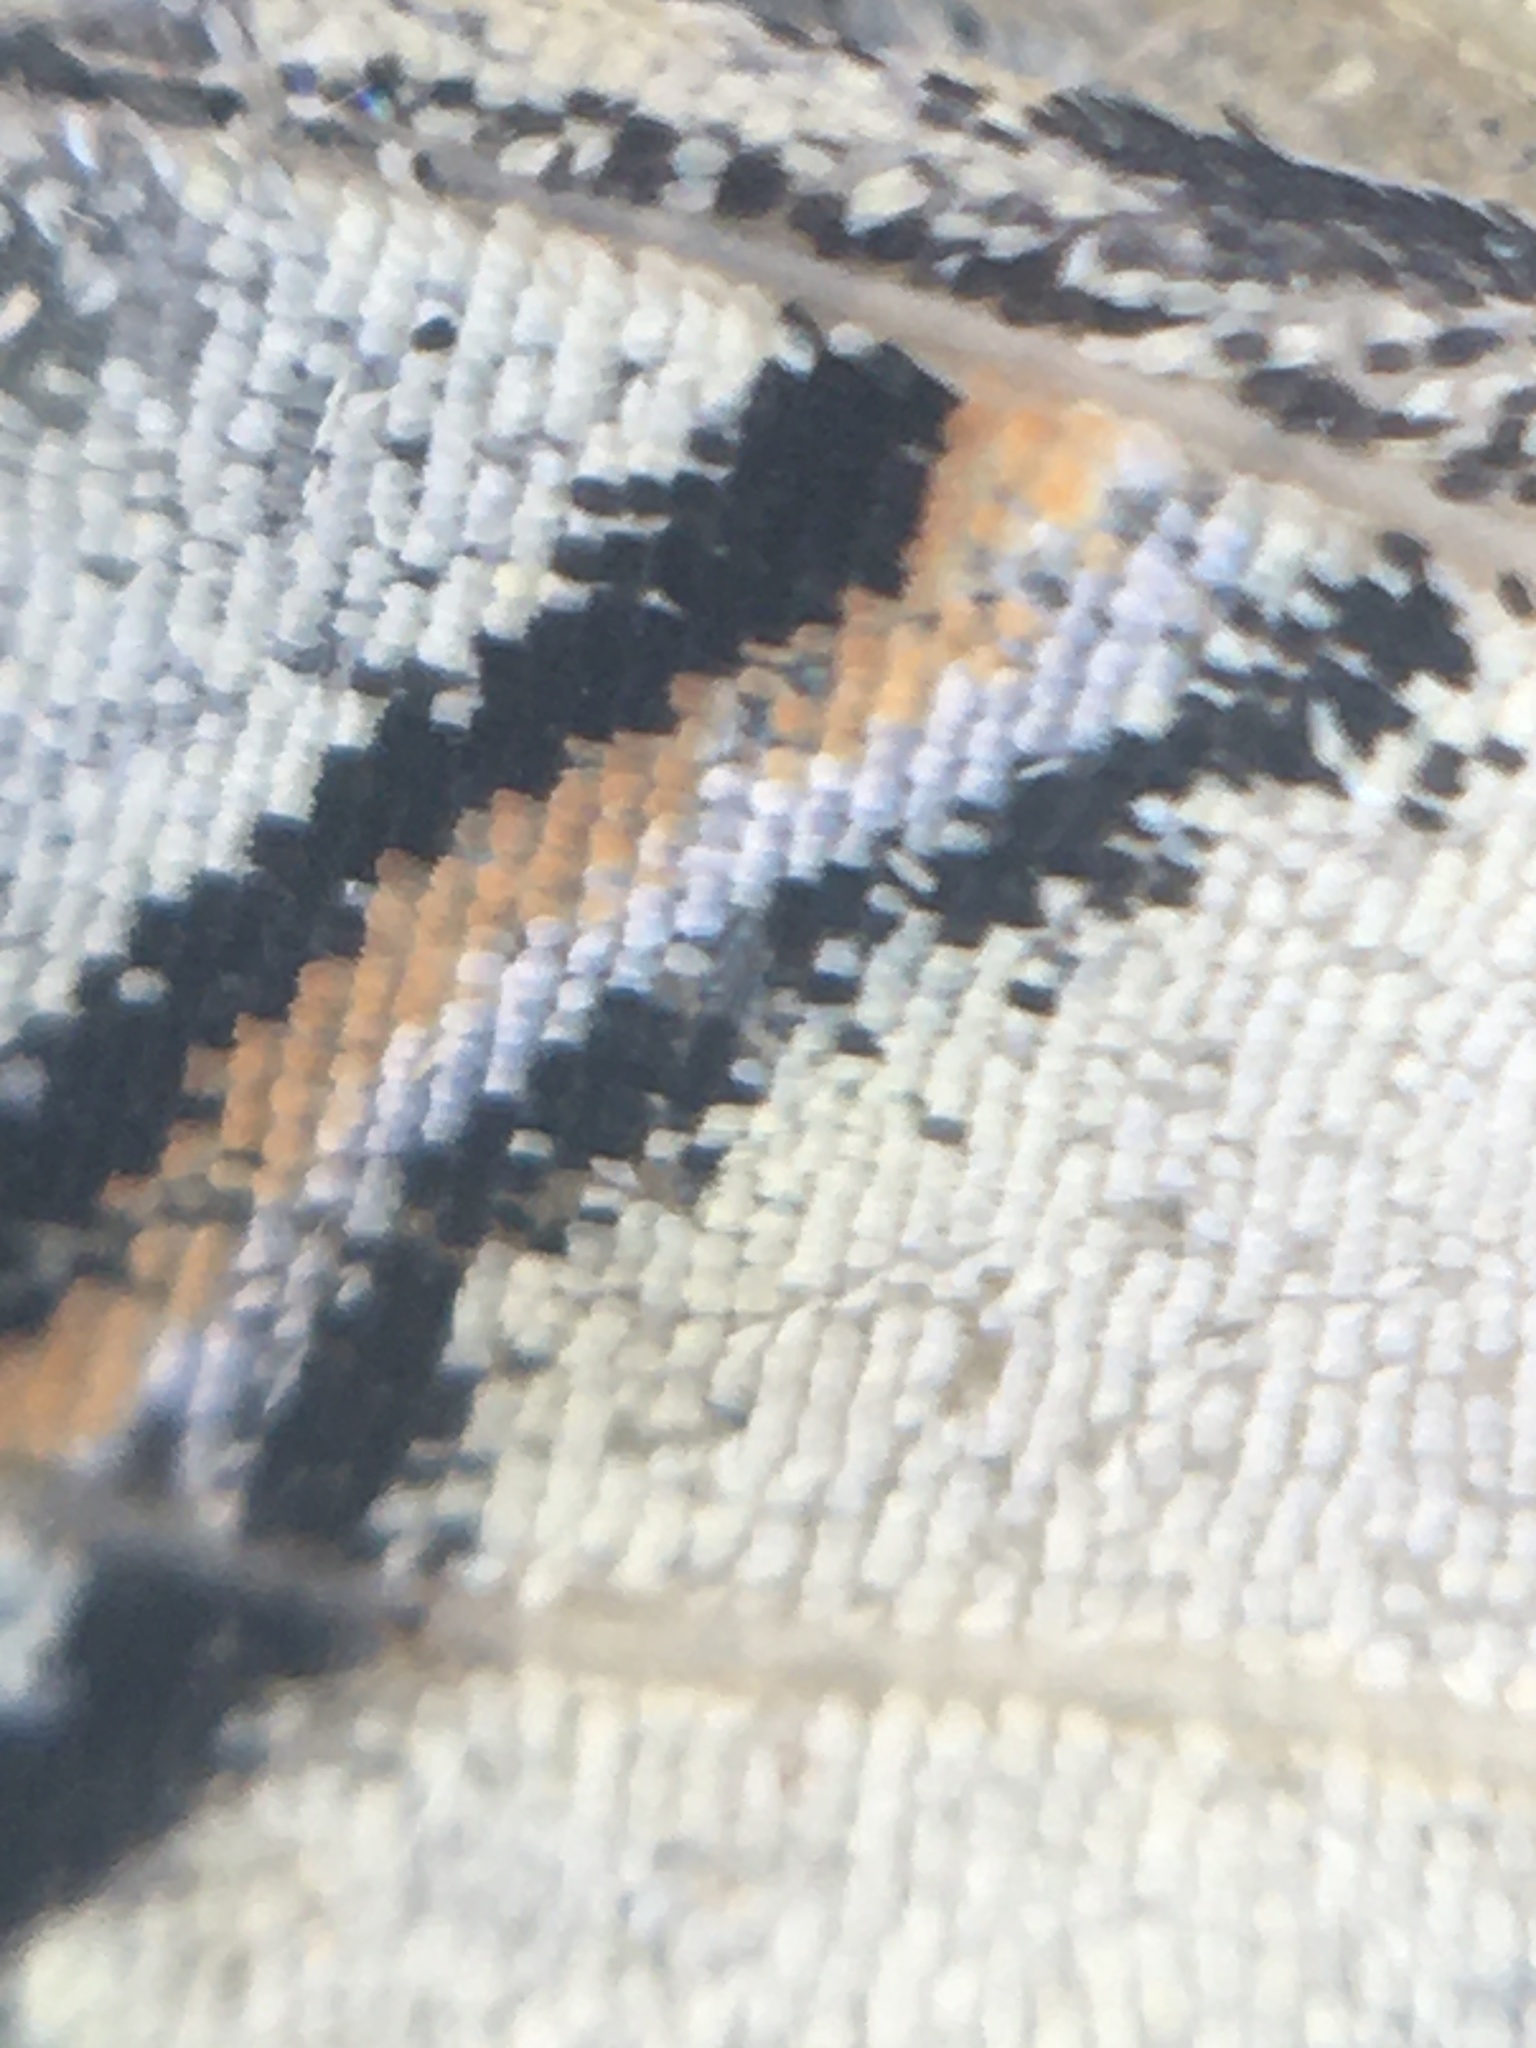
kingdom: Animalia
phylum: Arthropoda
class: Insecta
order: Lepidoptera
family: Papilionidae
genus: Iphiclides
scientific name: Iphiclides podalirius
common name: Scarce swallowtail
